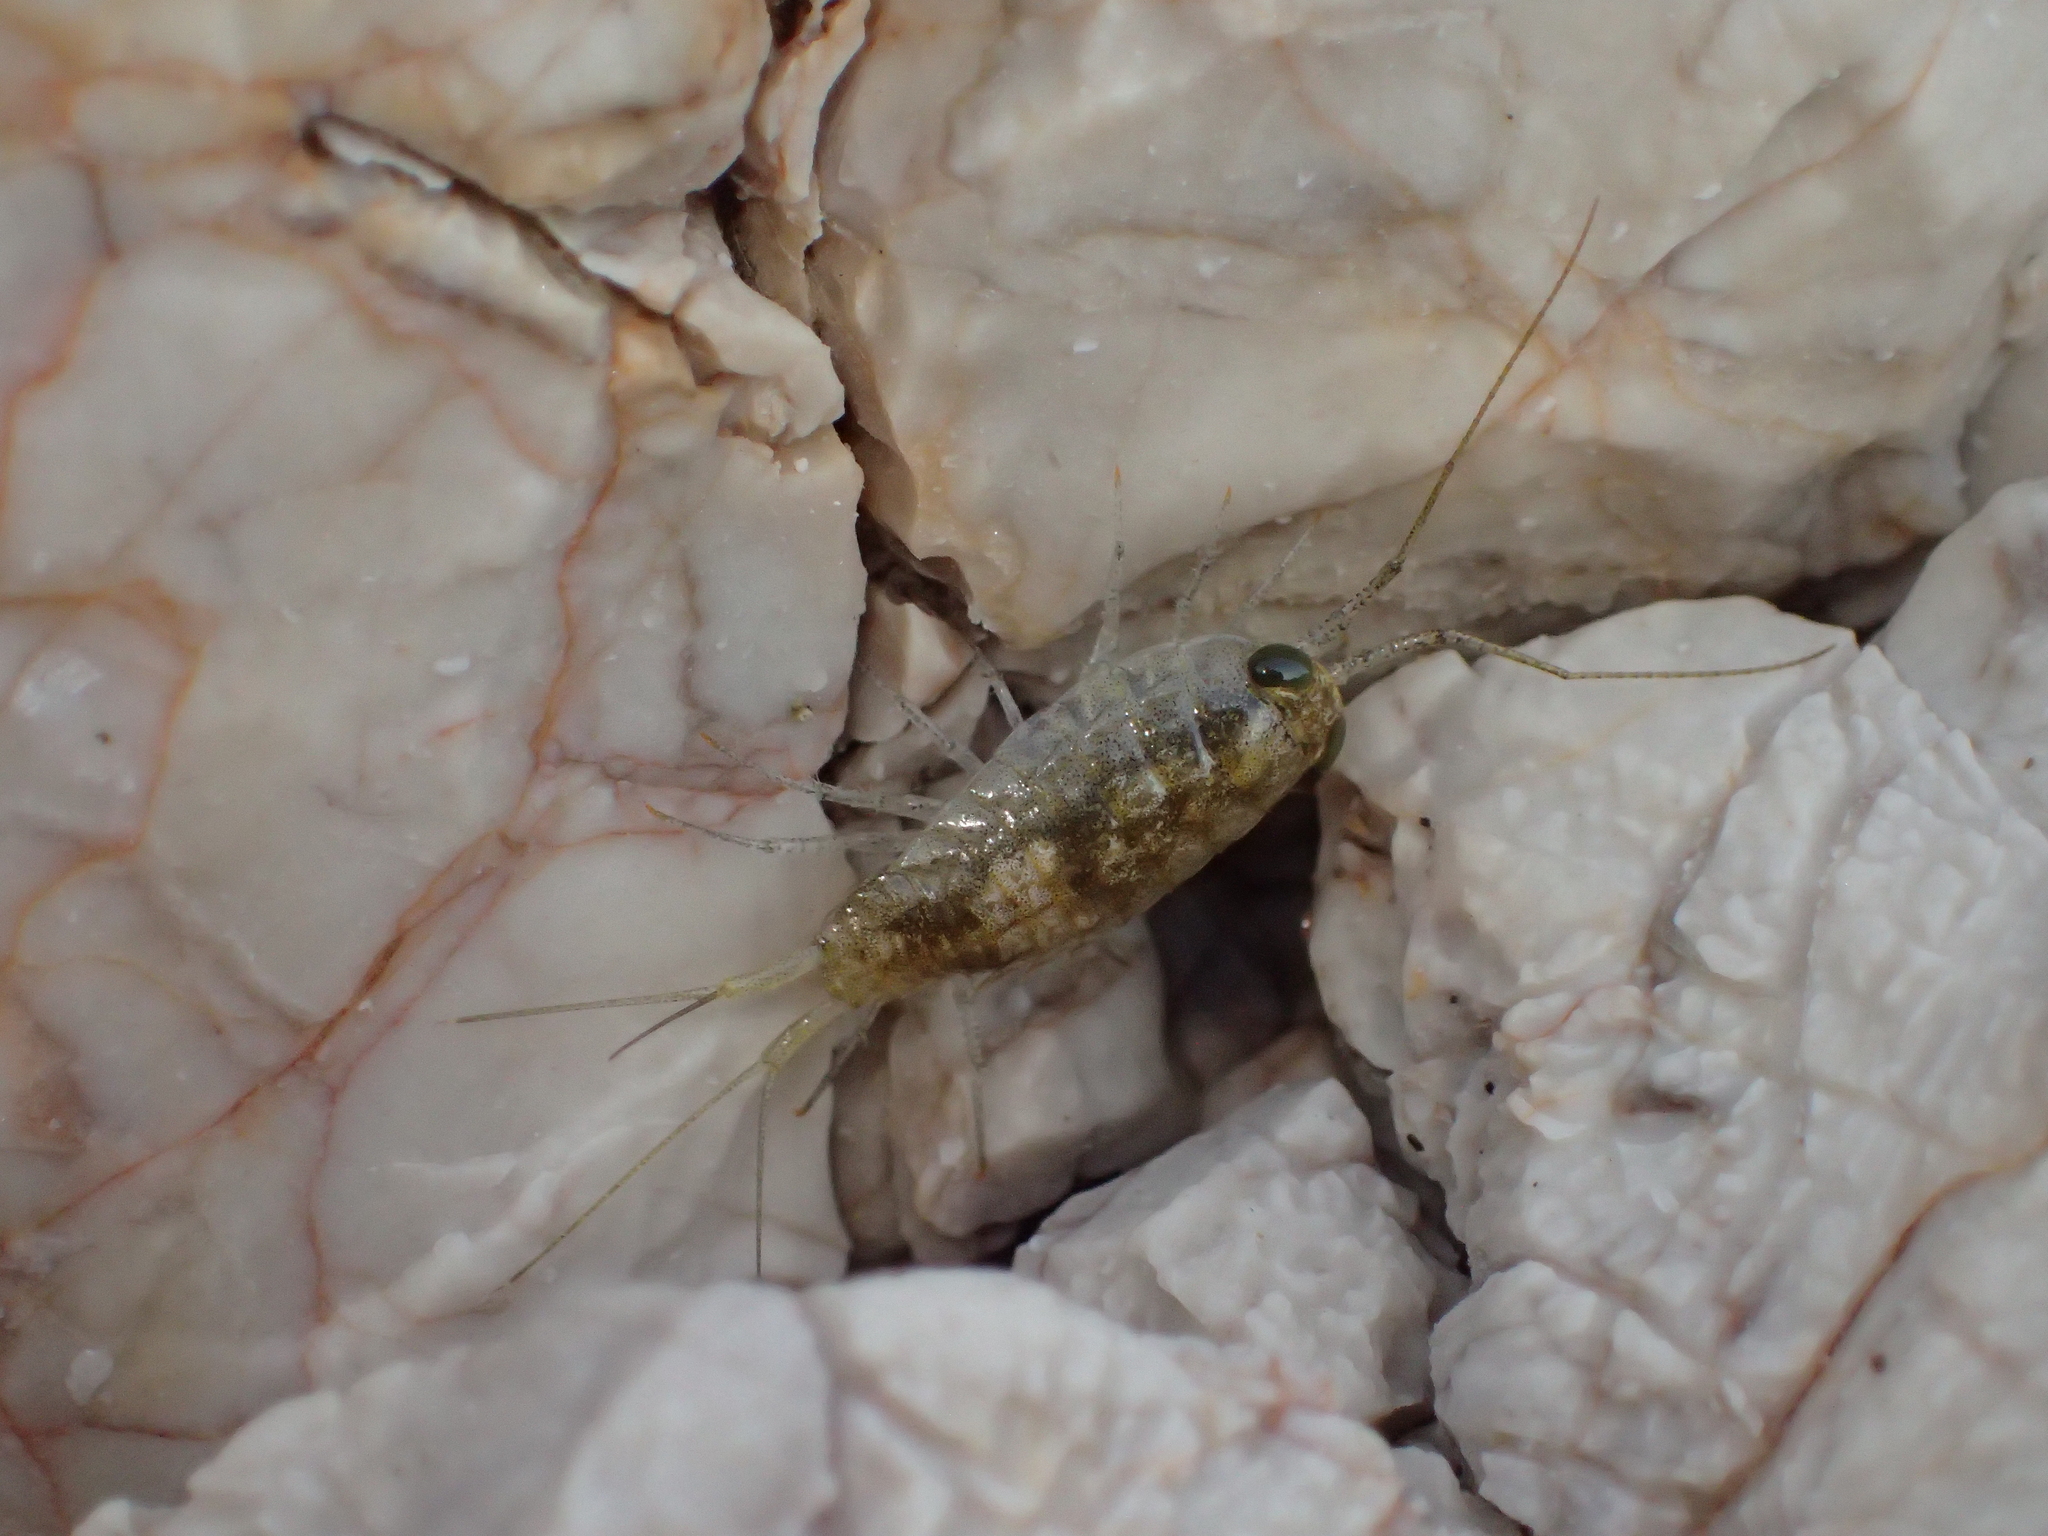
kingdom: Animalia
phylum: Arthropoda
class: Malacostraca
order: Isopoda
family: Ligiidae
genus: Ligia
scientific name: Ligia italica
